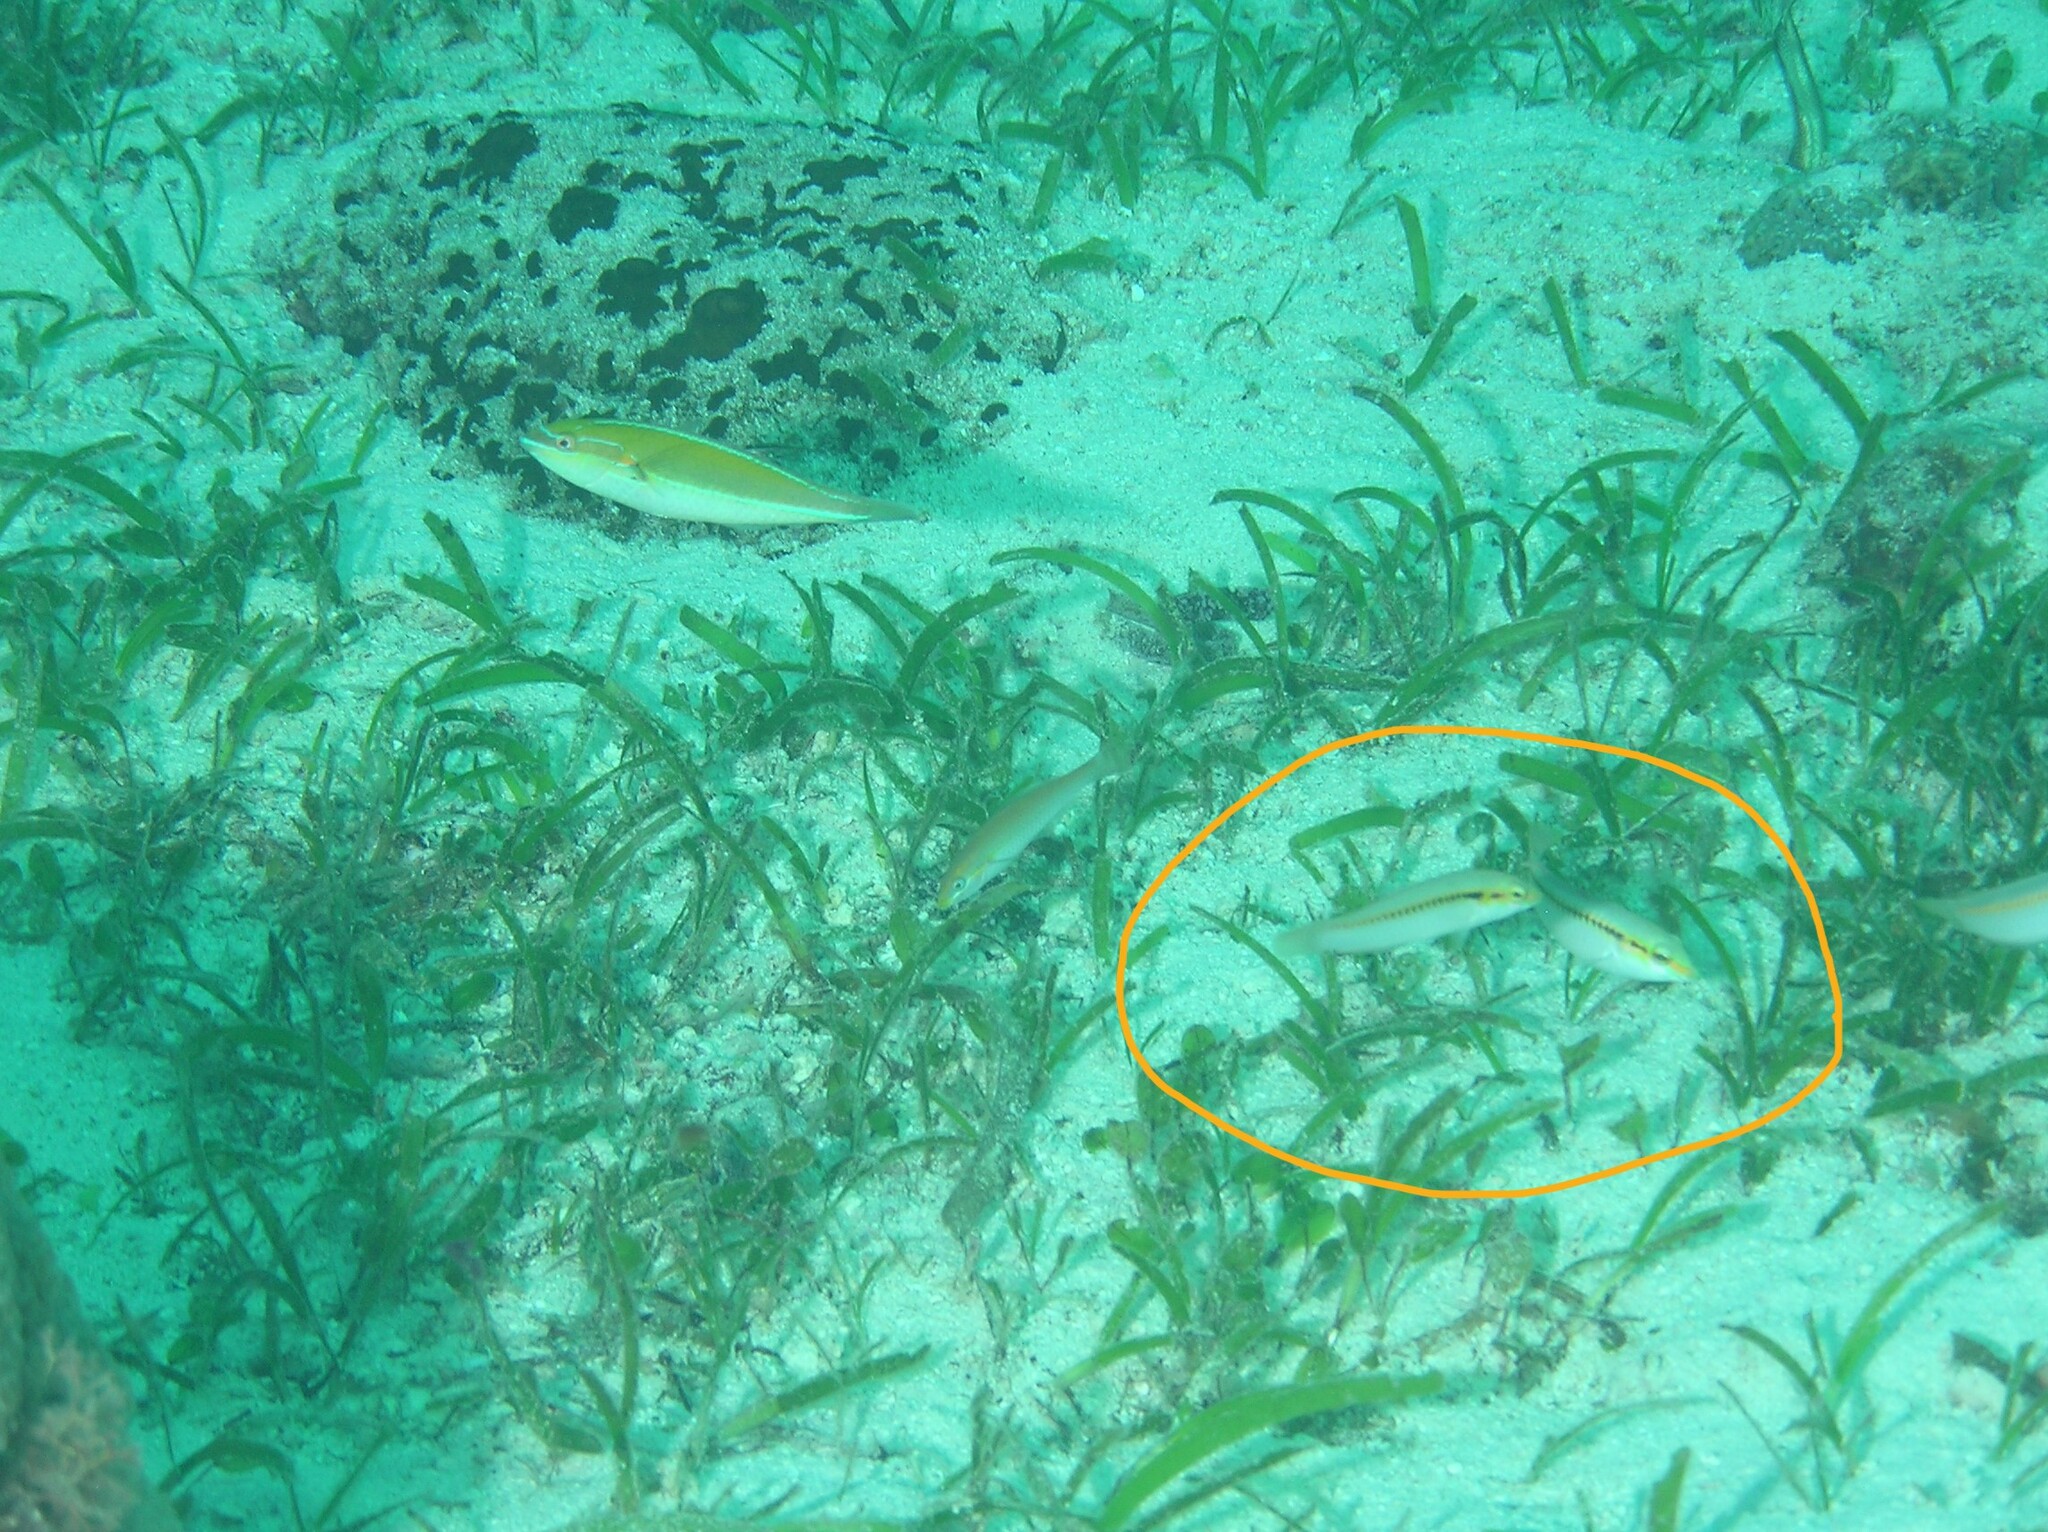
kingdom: Animalia
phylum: Chordata
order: Perciformes
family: Labridae
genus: Halichoeres
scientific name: Halichoeres scapularis
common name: Brownbanded wrasse
